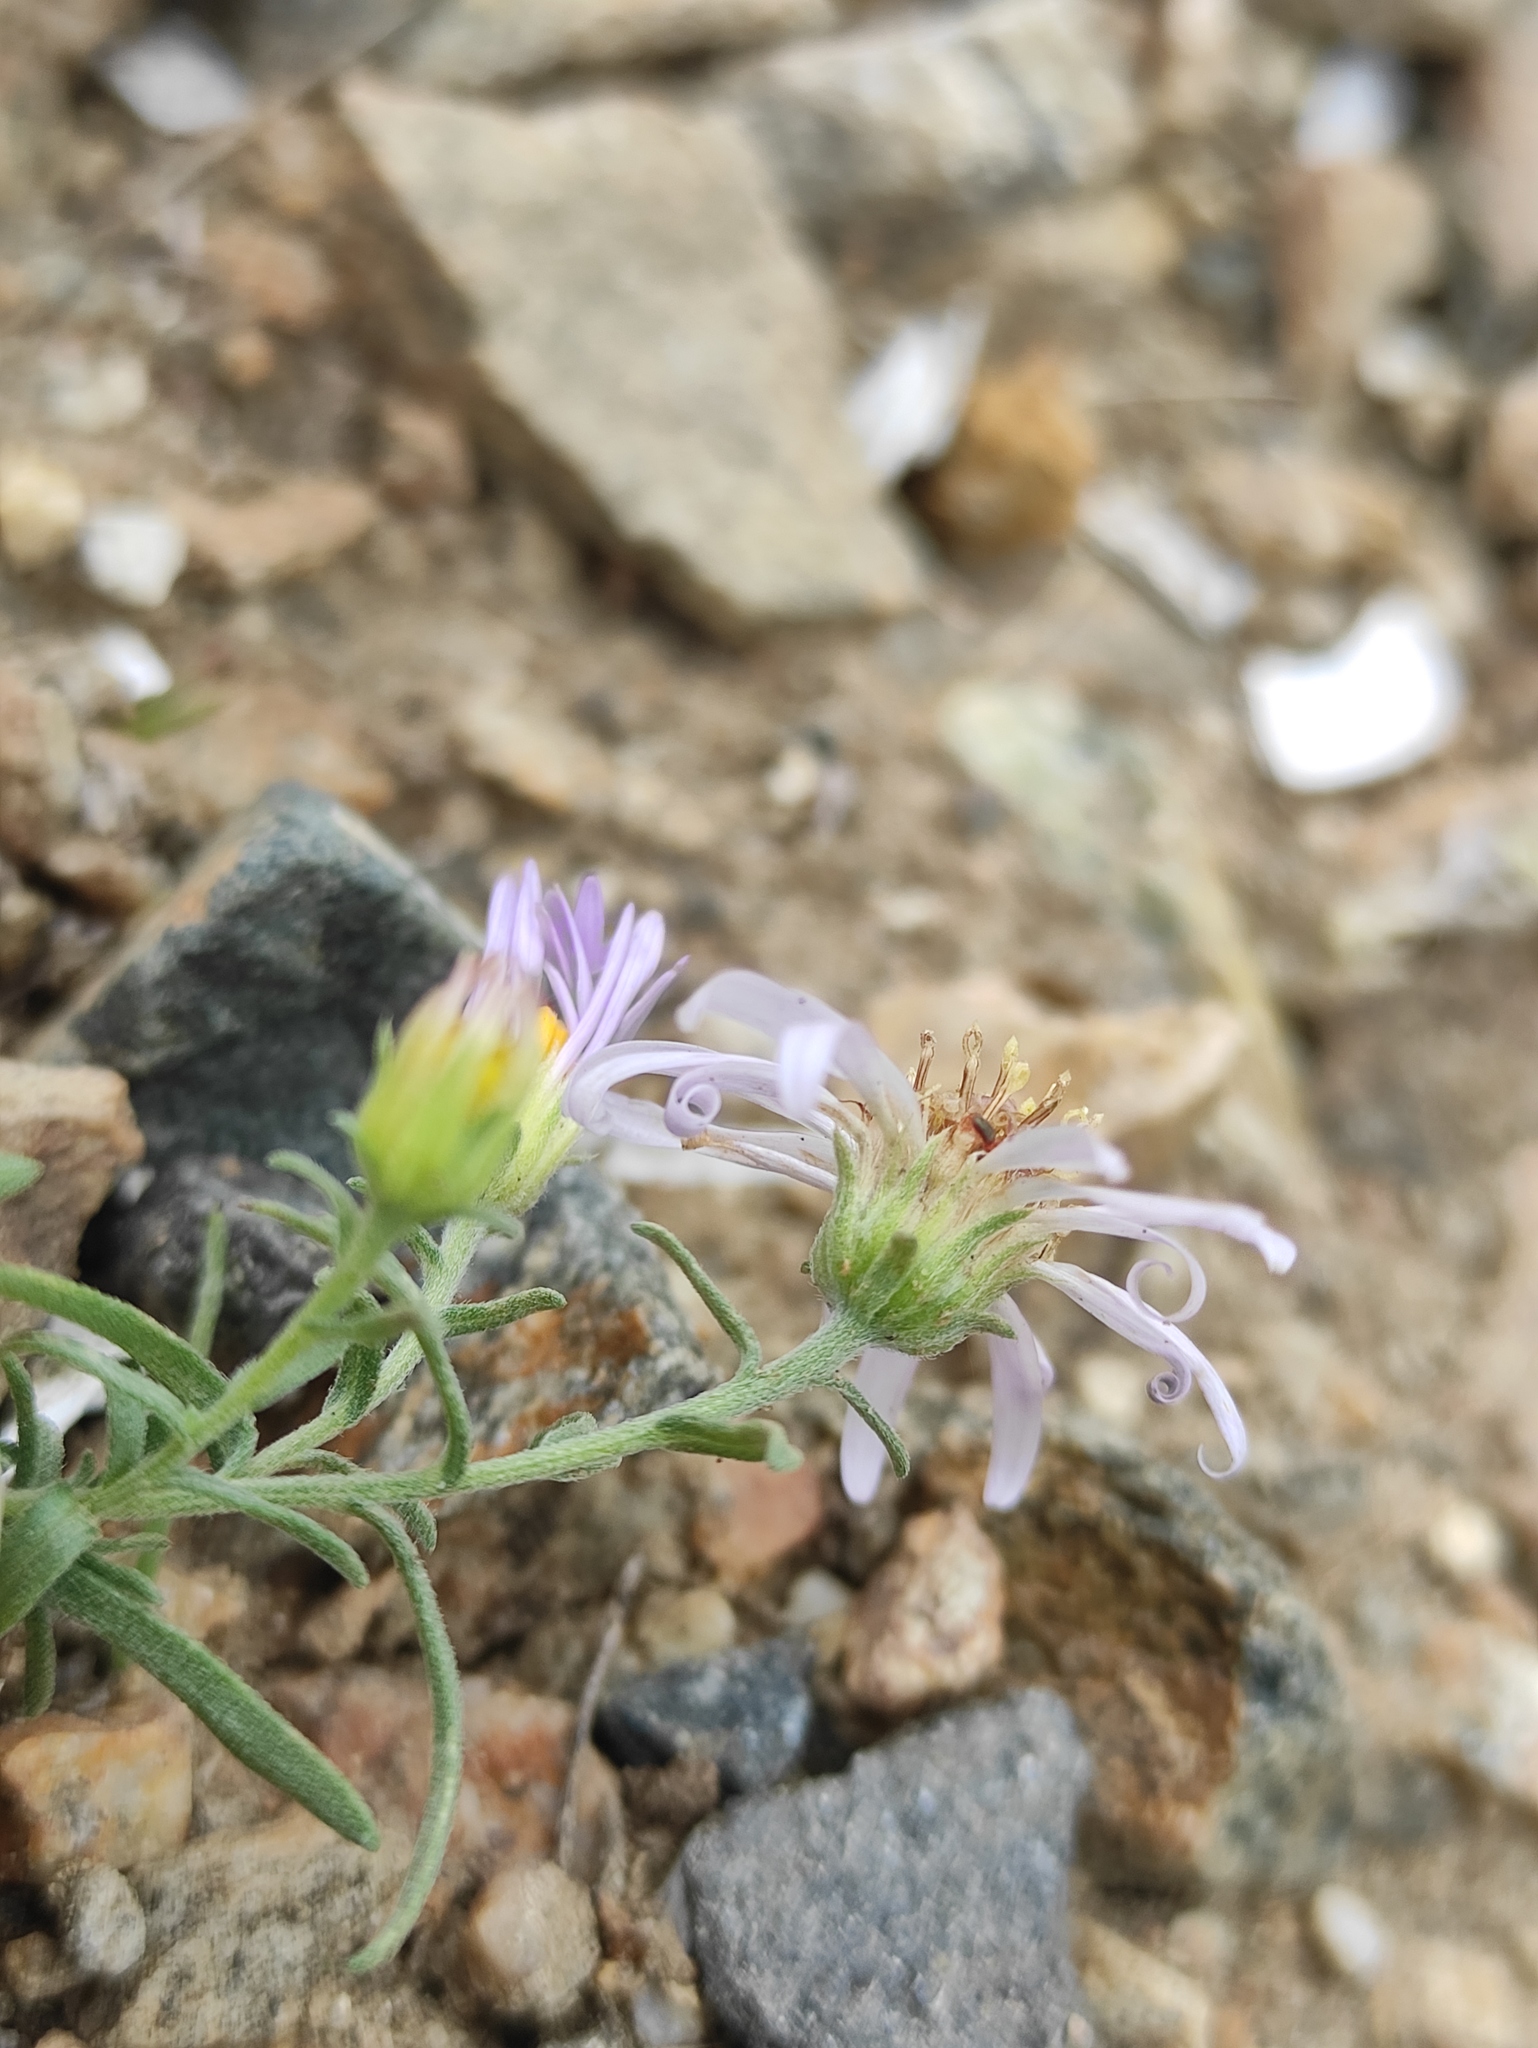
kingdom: Plantae
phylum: Tracheophyta
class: Magnoliopsida
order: Asterales
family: Asteraceae
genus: Heteropappus
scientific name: Heteropappus altaicus
